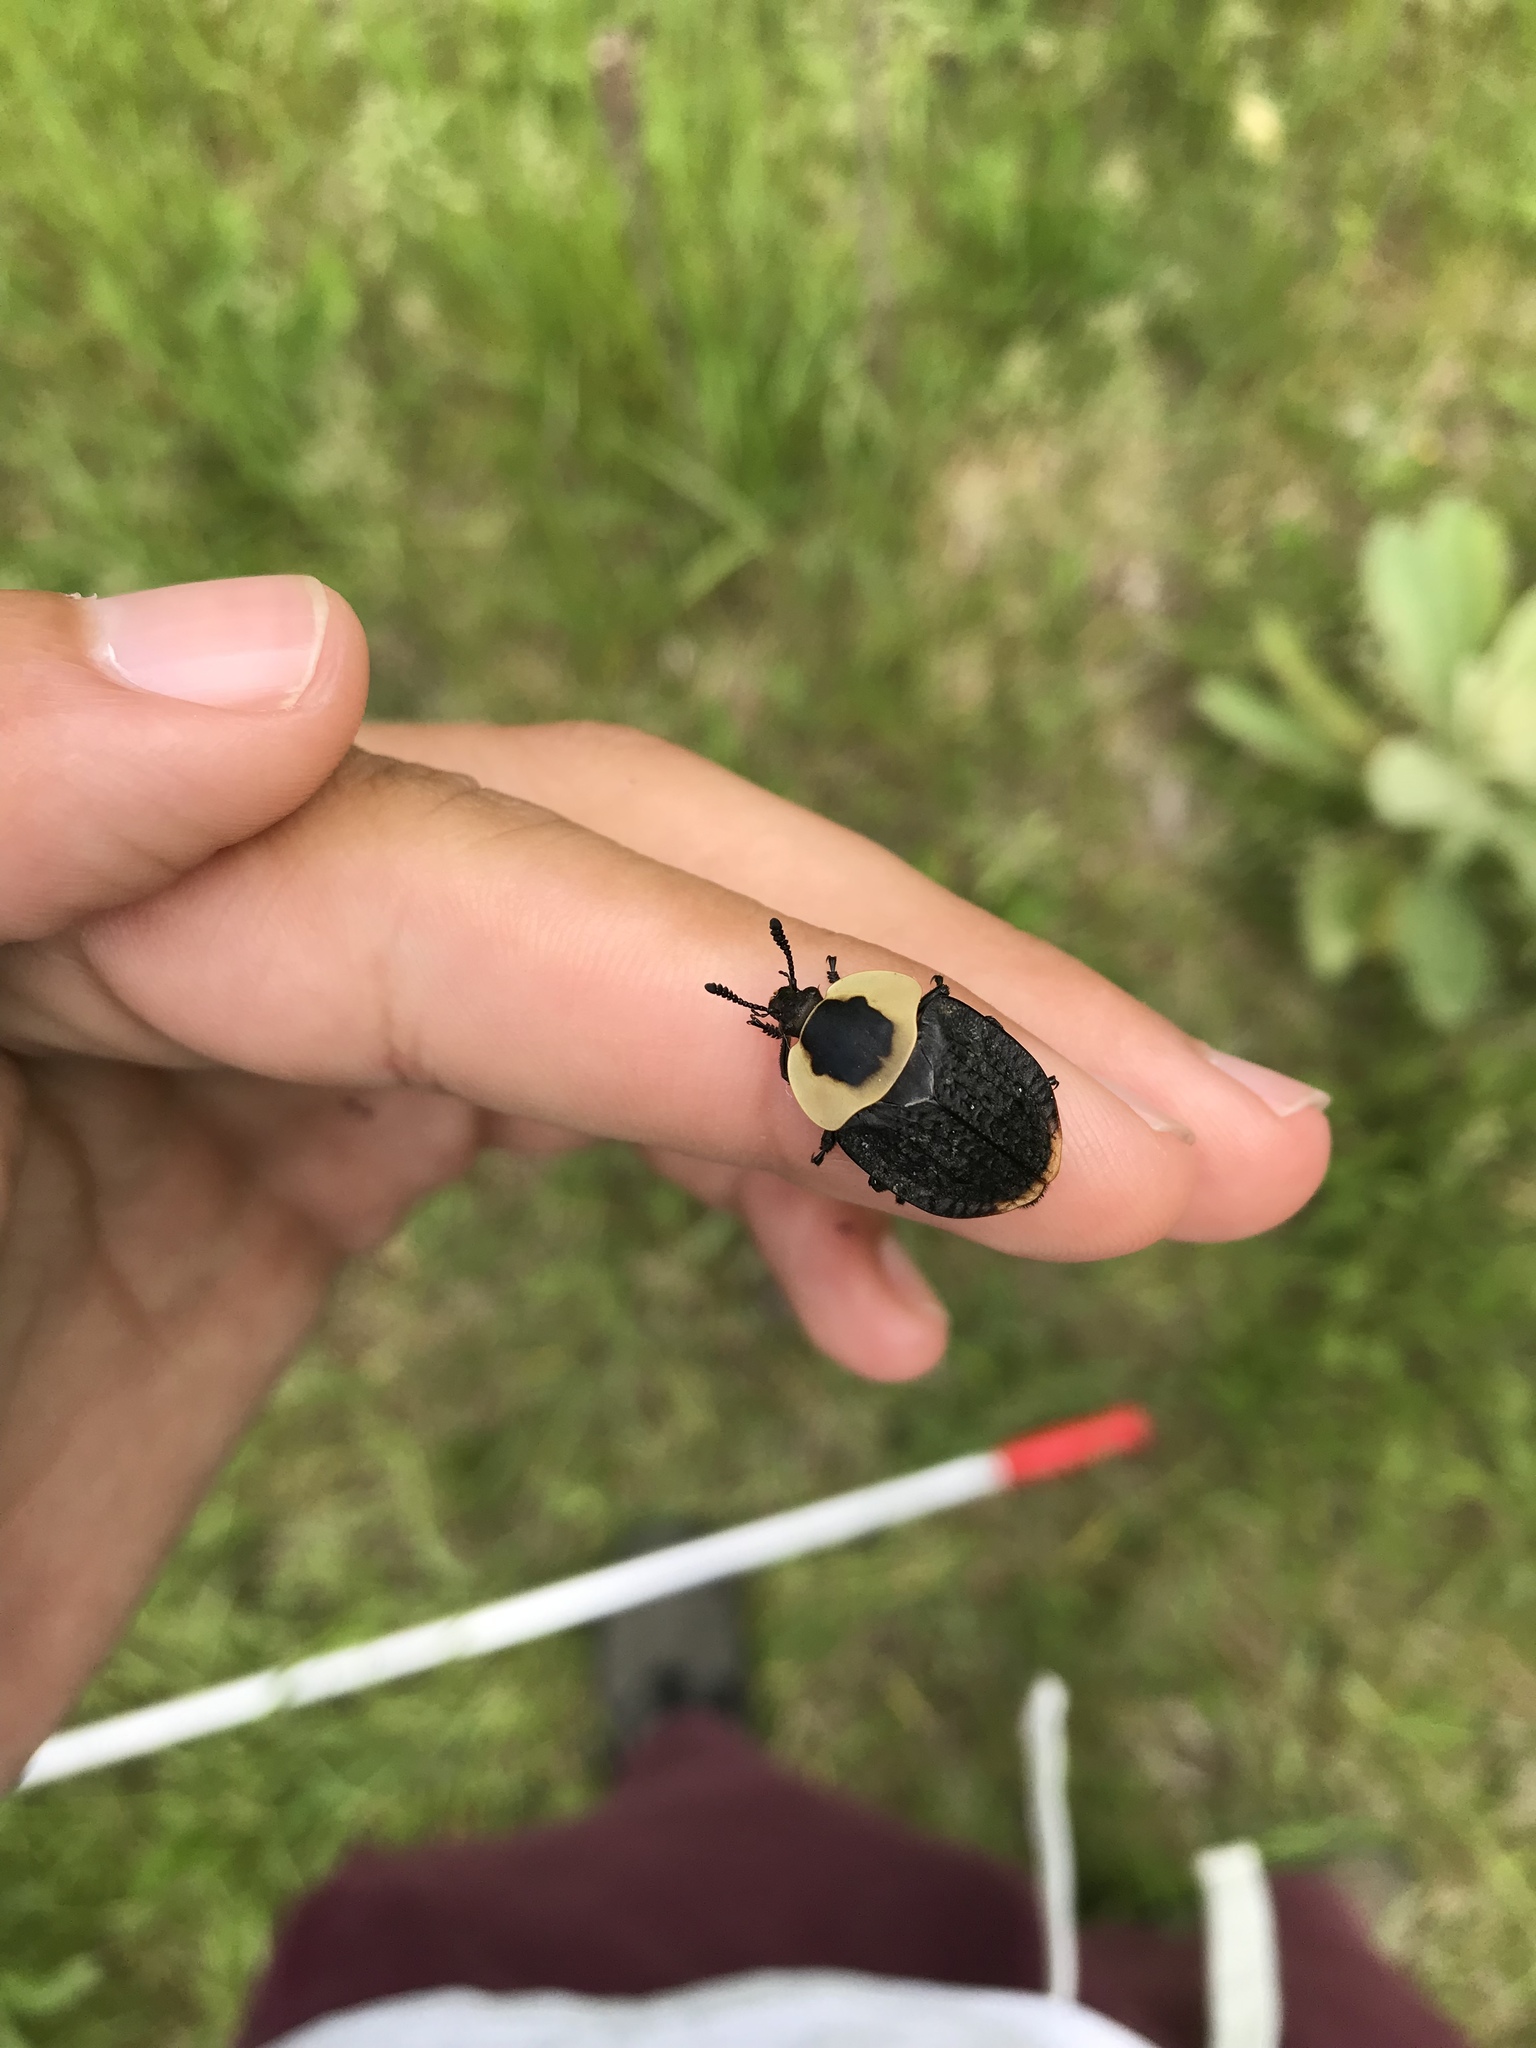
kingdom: Animalia
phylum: Arthropoda
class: Insecta
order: Coleoptera
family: Staphylinidae
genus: Necrophila
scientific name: Necrophila americana
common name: American carrion beetle
